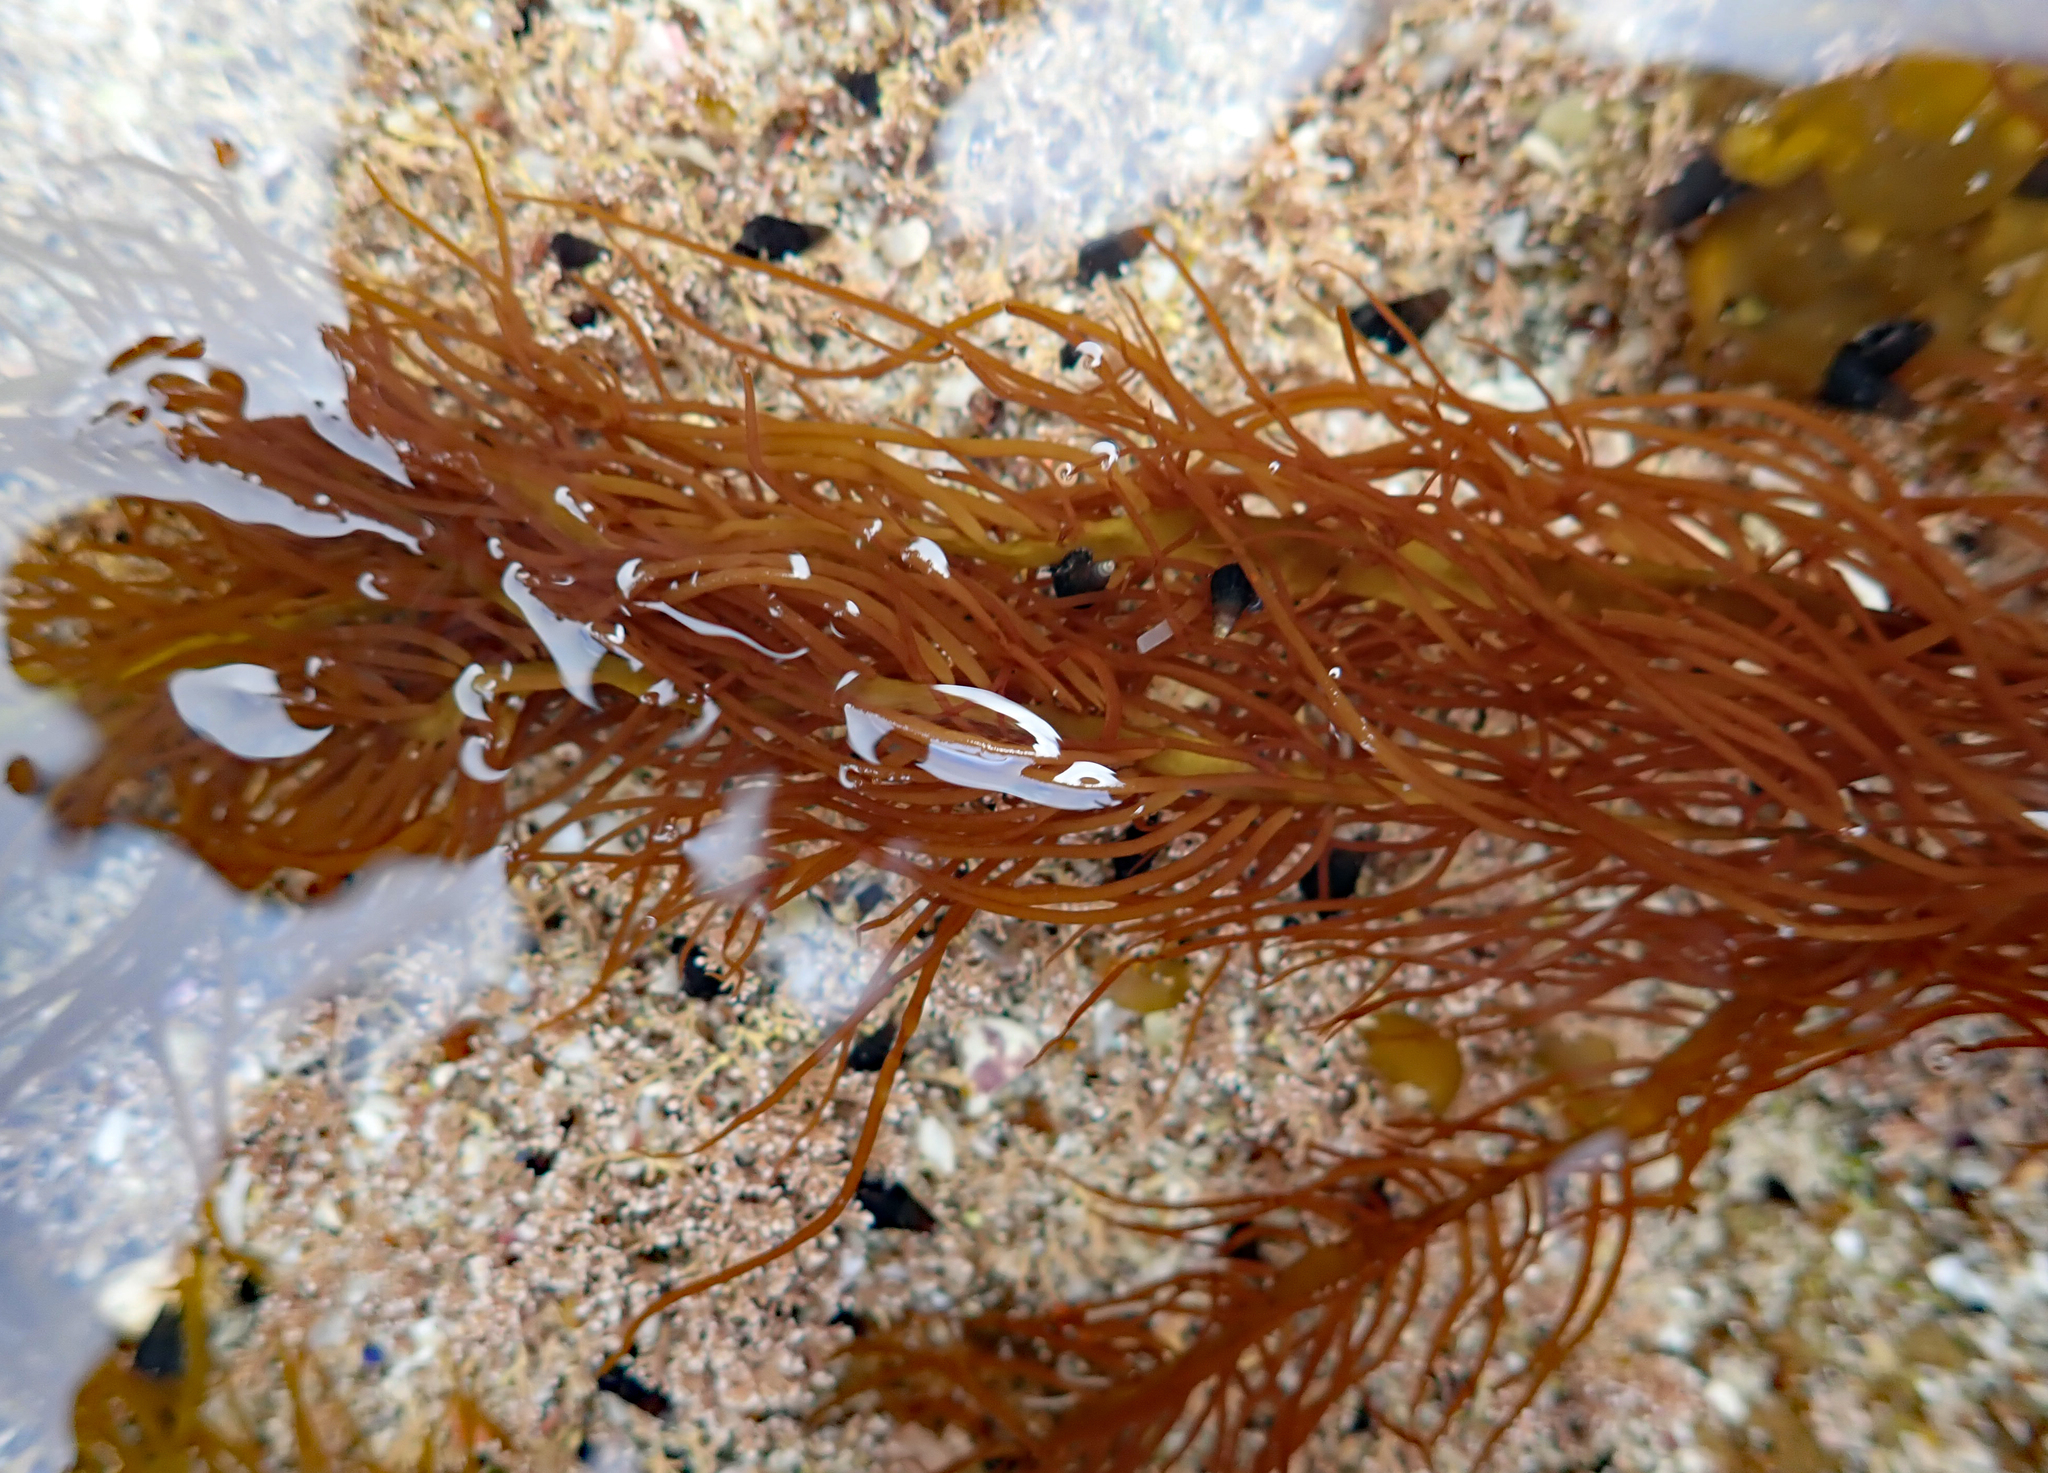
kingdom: Plantae
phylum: Rhodophyta
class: Florideophyceae
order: Halymeniales
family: Halymeniaceae
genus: Grateloupia
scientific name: Grateloupia prolifera
